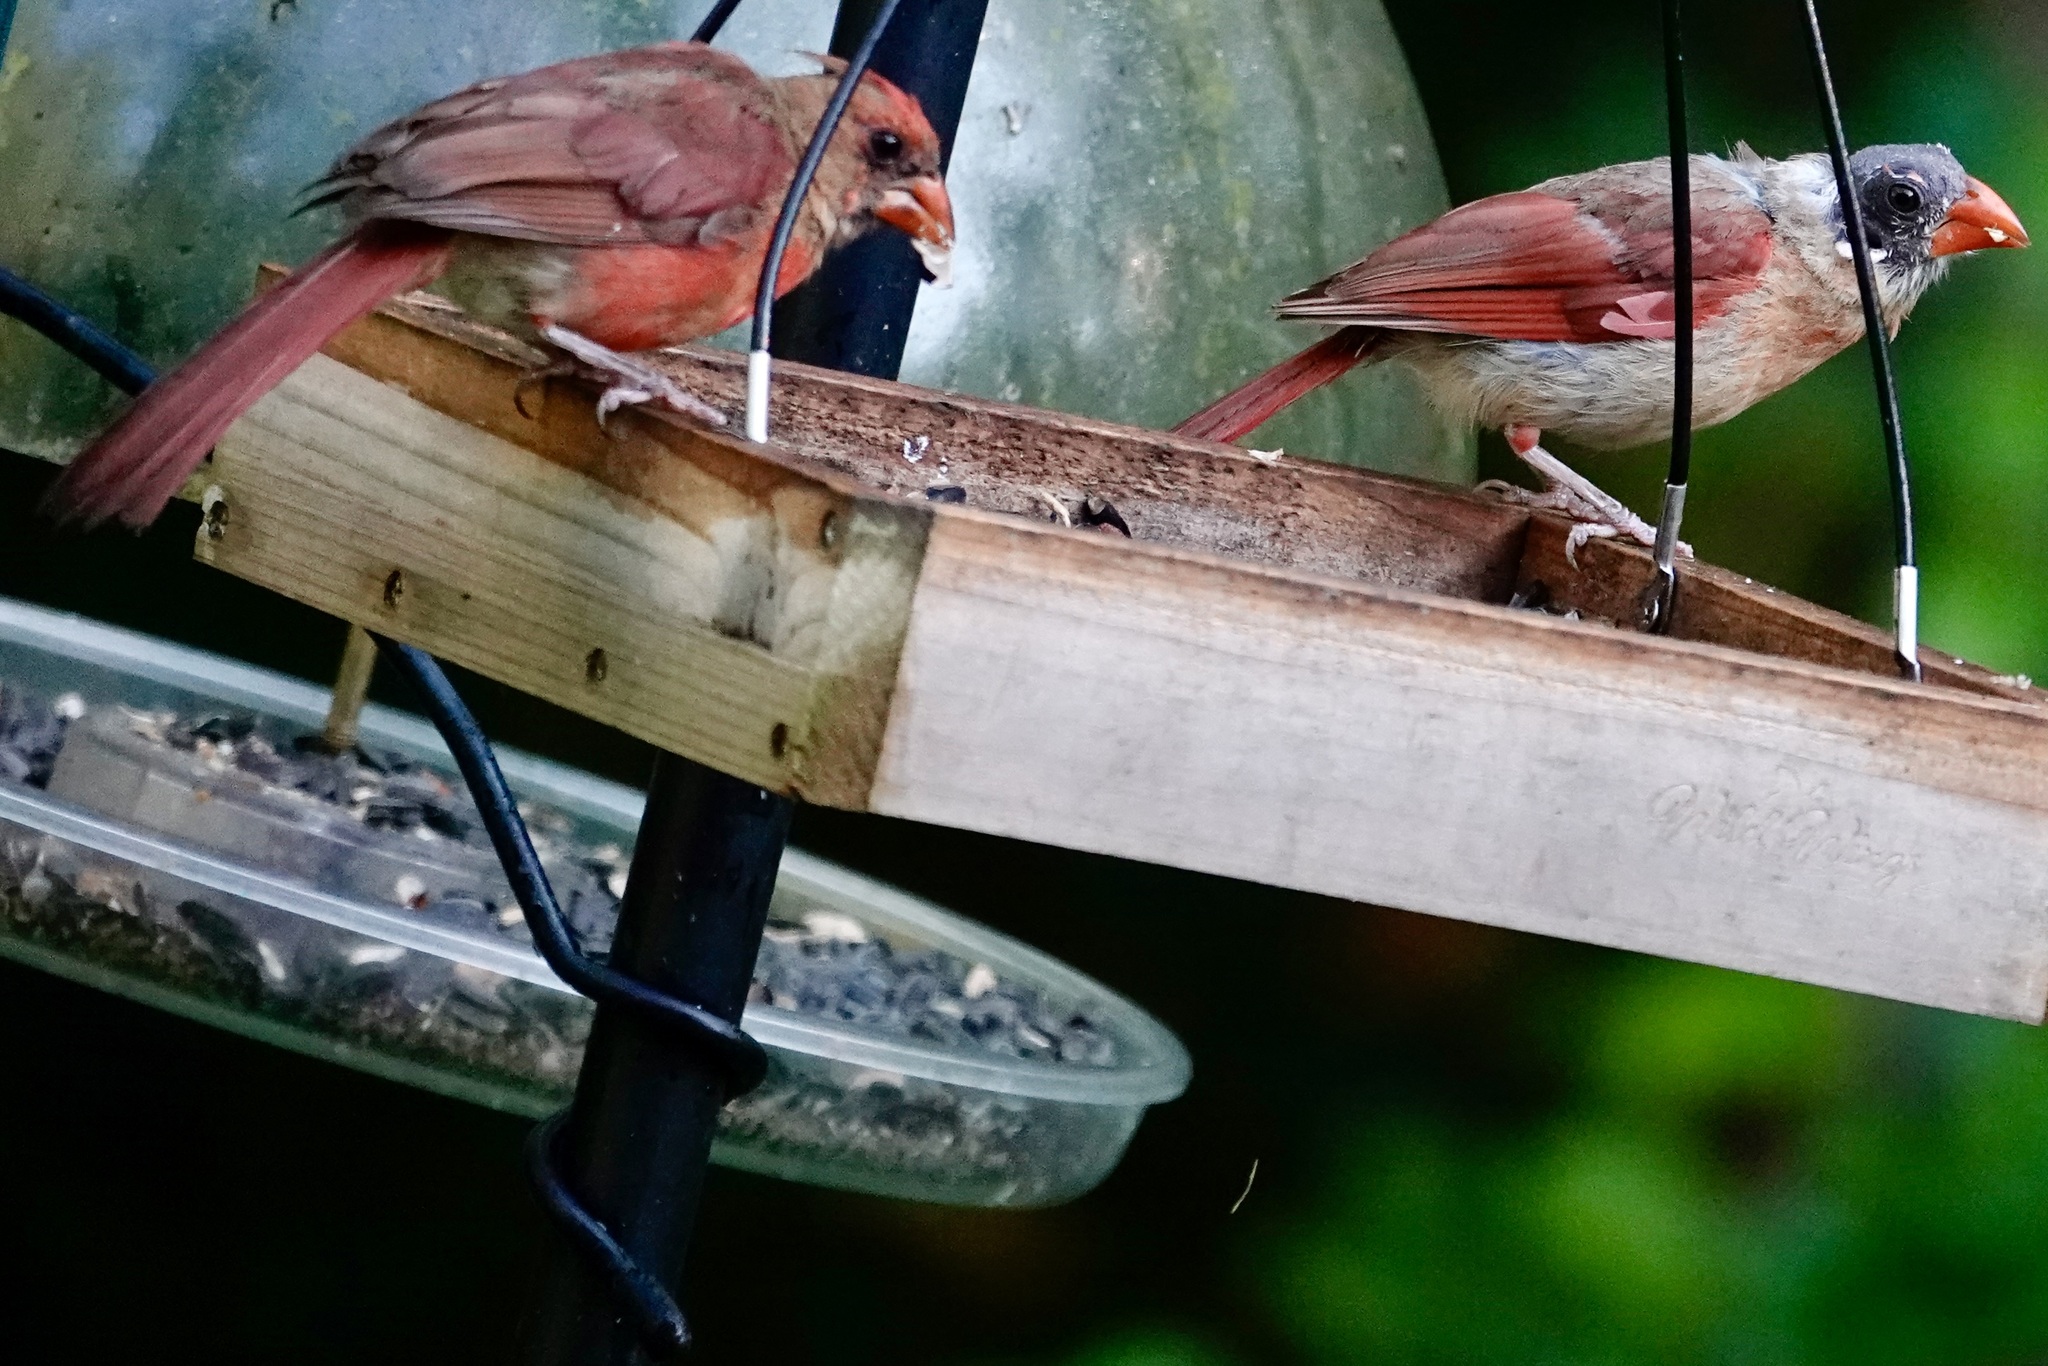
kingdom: Animalia
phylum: Chordata
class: Aves
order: Passeriformes
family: Cardinalidae
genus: Cardinalis
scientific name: Cardinalis cardinalis
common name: Northern cardinal
